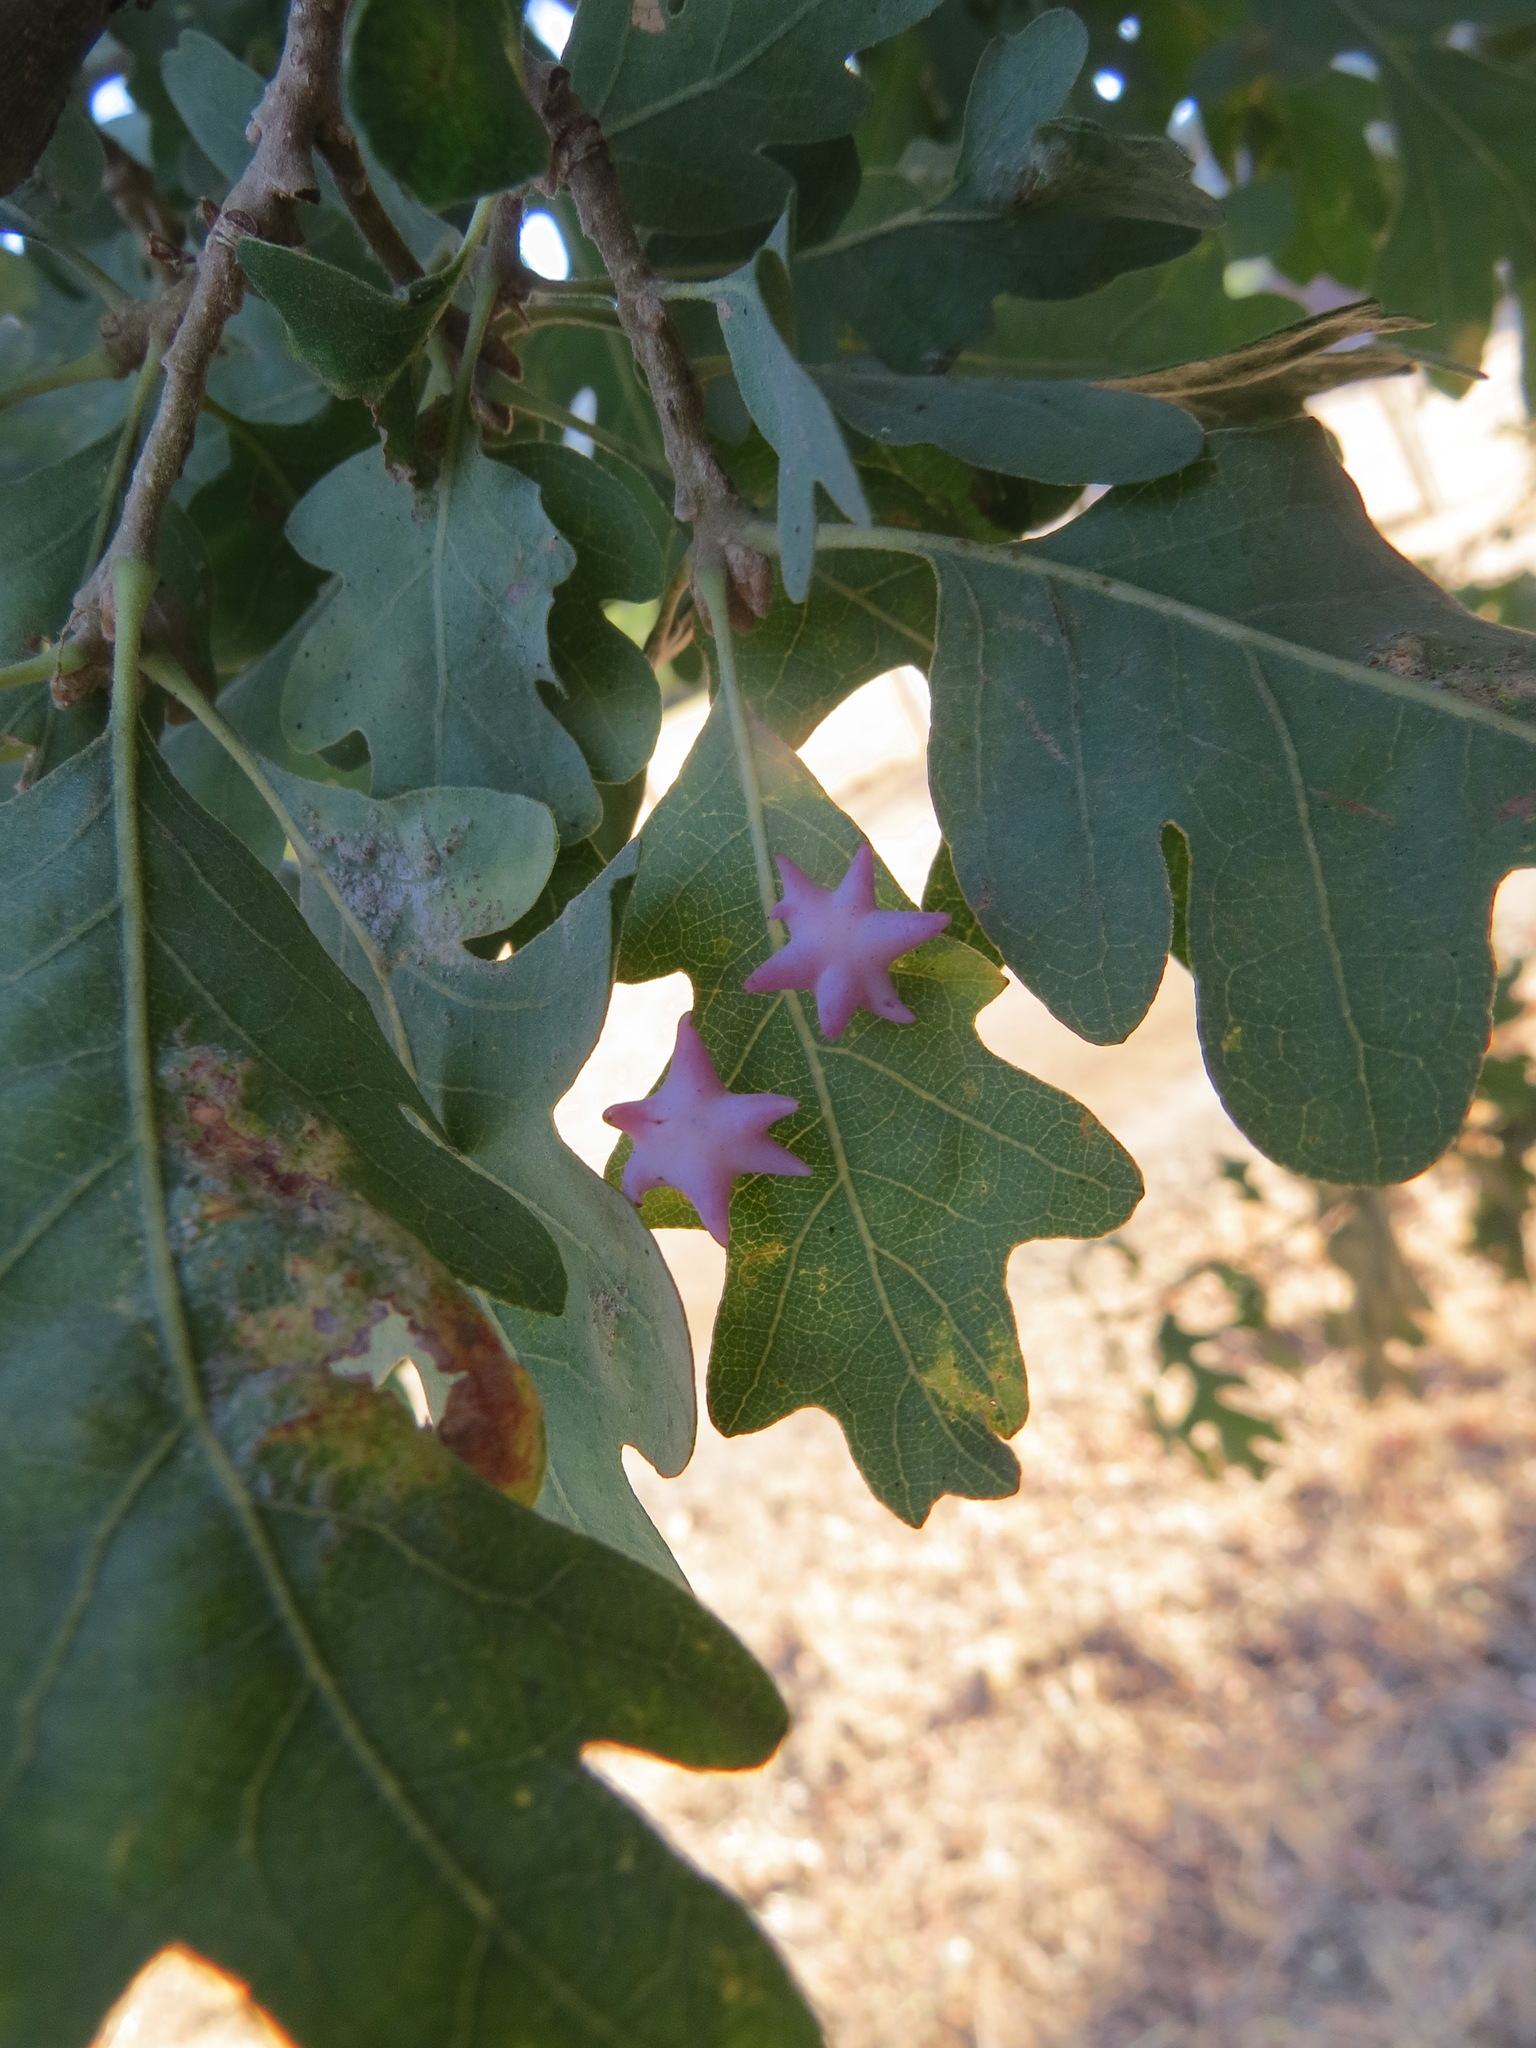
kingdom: Animalia
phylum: Arthropoda
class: Insecta
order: Hymenoptera
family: Cynipidae
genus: Cynips
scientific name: Cynips douglasi
